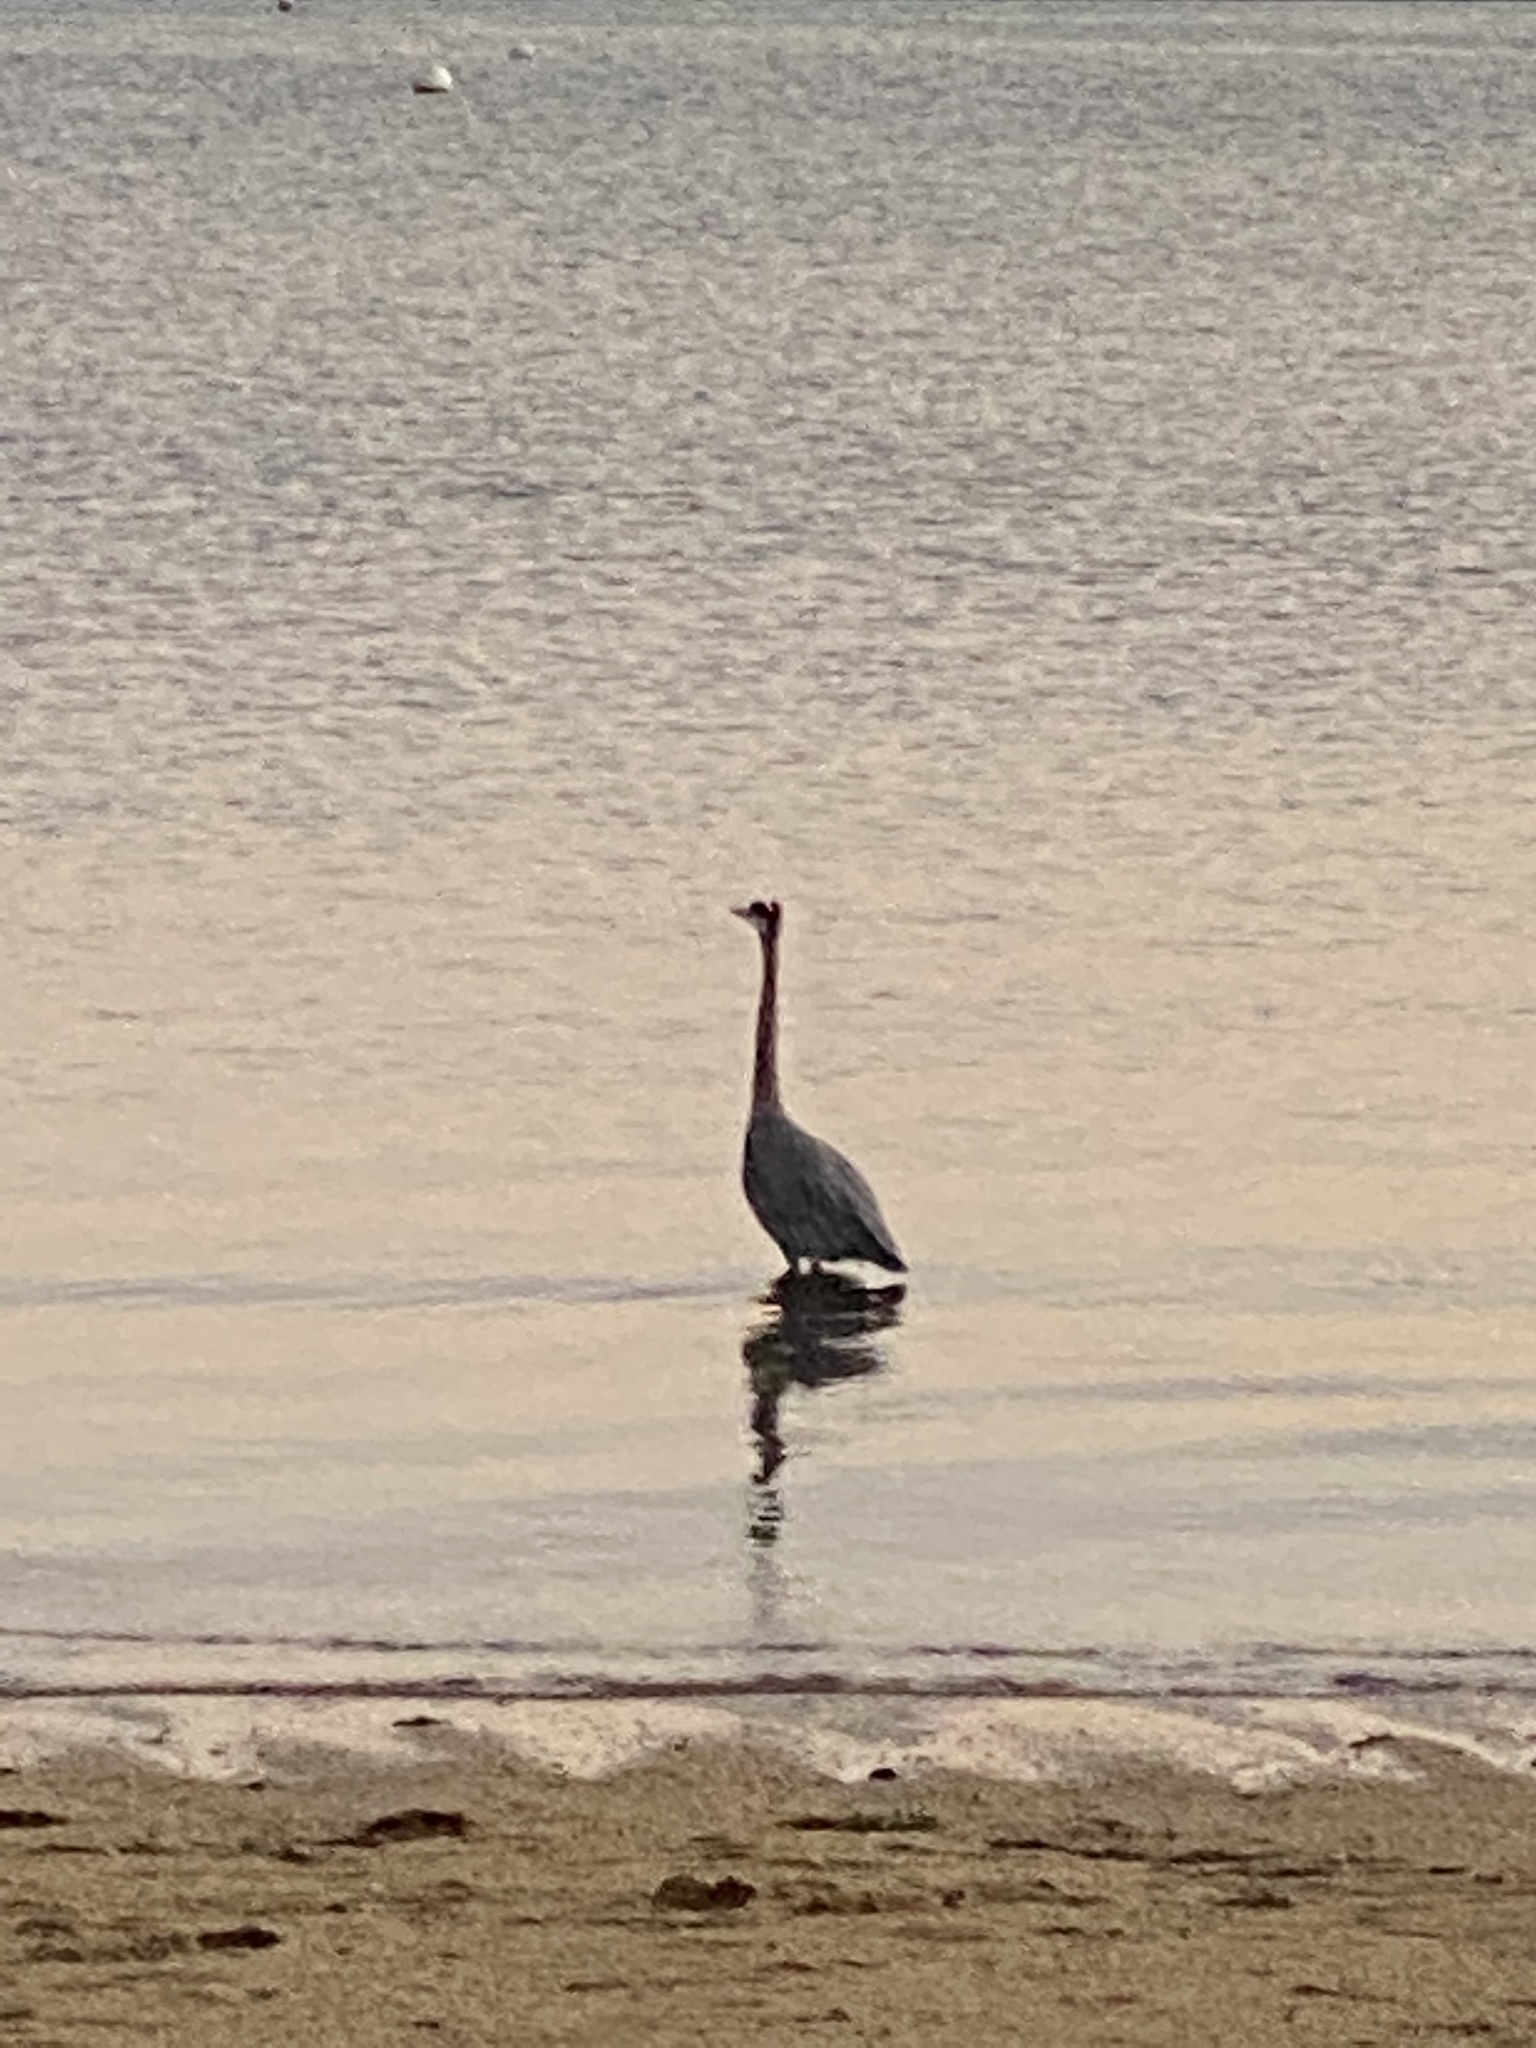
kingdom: Animalia
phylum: Chordata
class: Aves
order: Pelecaniformes
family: Ardeidae
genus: Ardea
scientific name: Ardea herodias
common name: Great blue heron
